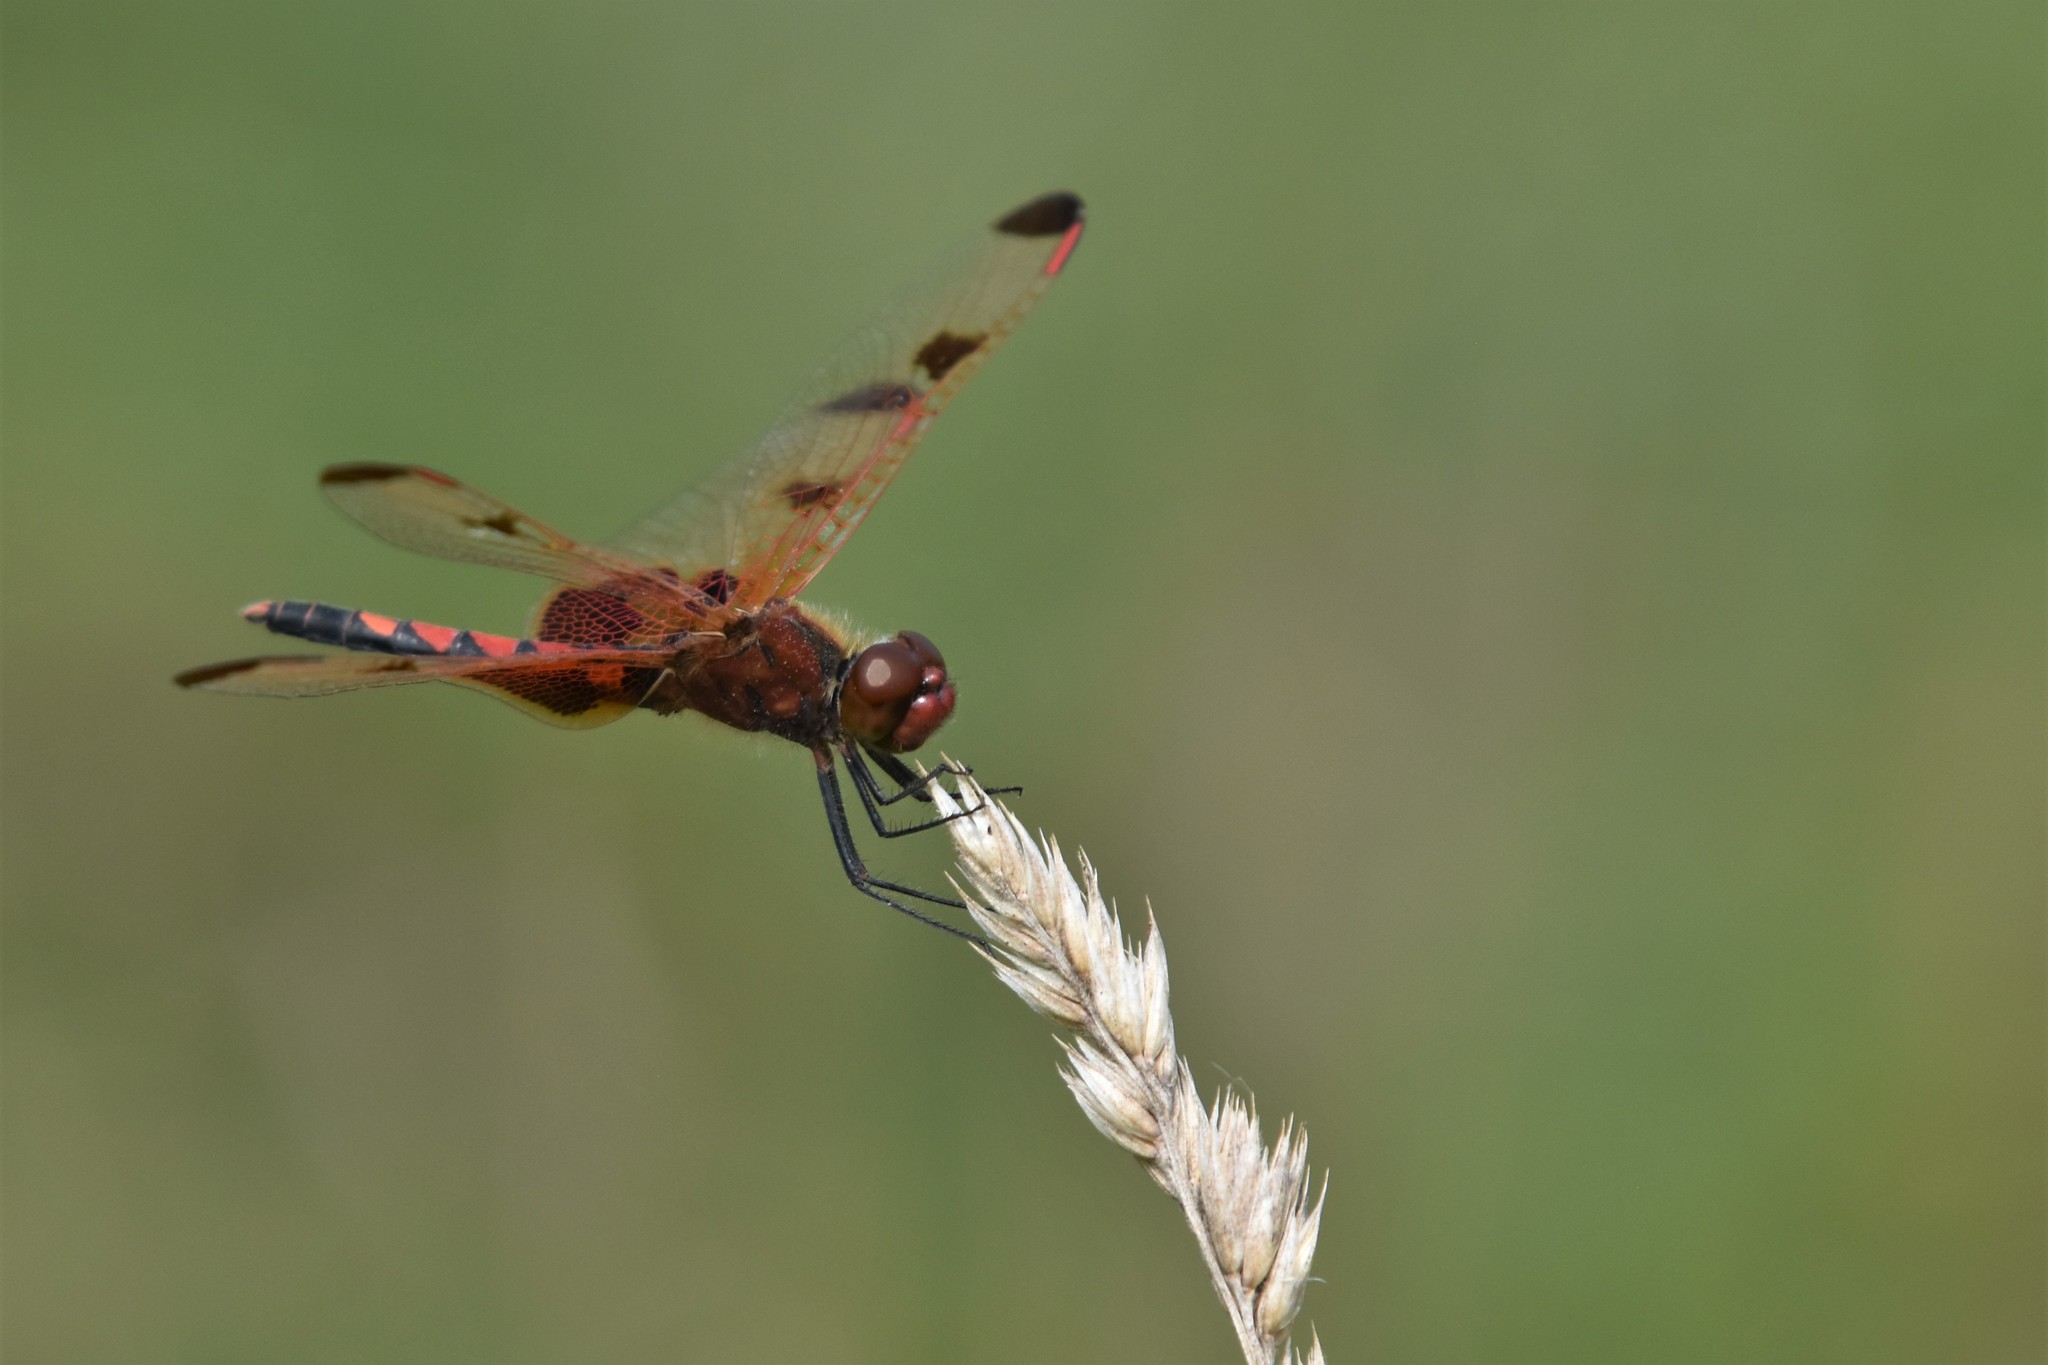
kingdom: Animalia
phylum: Arthropoda
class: Insecta
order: Odonata
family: Libellulidae
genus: Celithemis
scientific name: Celithemis elisa
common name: Calico pennant
